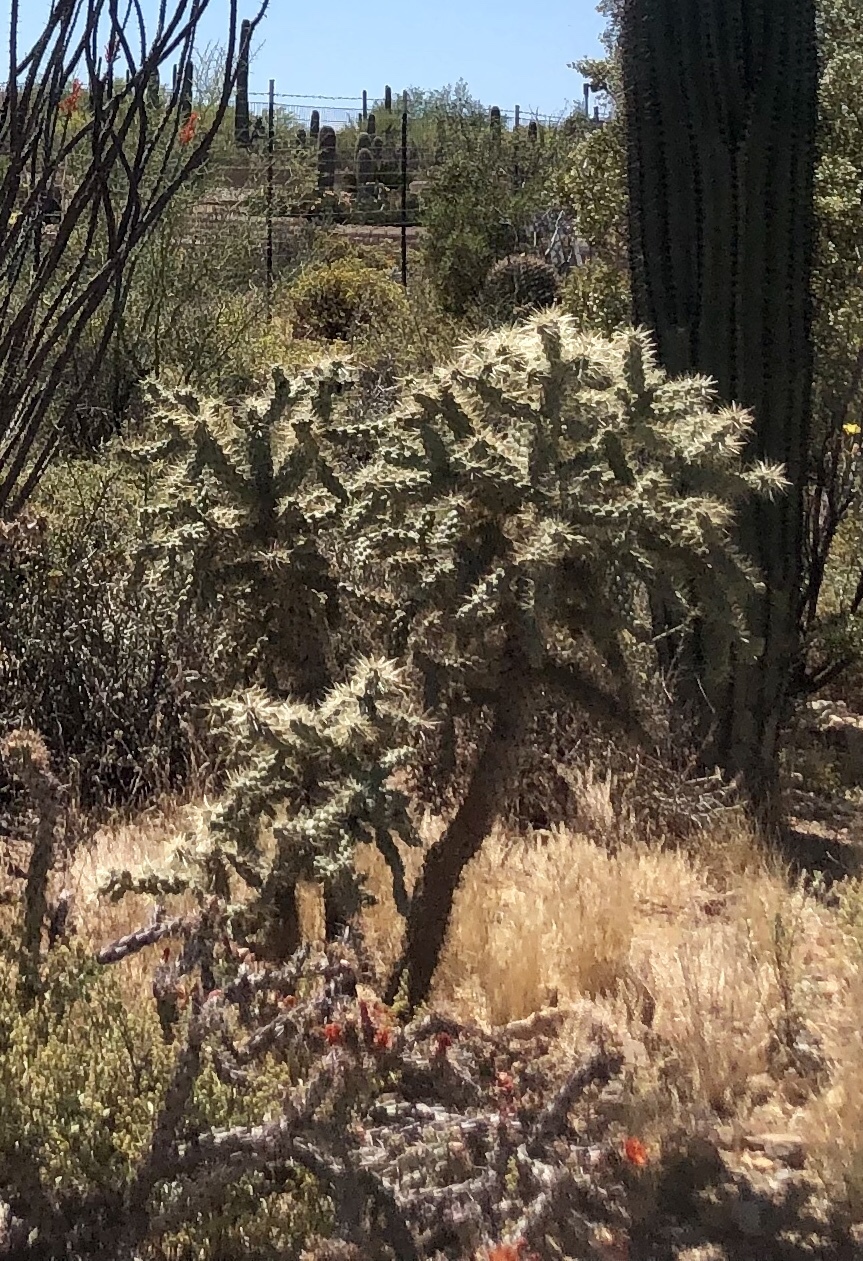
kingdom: Plantae
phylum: Tracheophyta
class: Magnoliopsida
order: Caryophyllales
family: Cactaceae
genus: Cylindropuntia
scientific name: Cylindropuntia fulgida
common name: Jumping cholla
